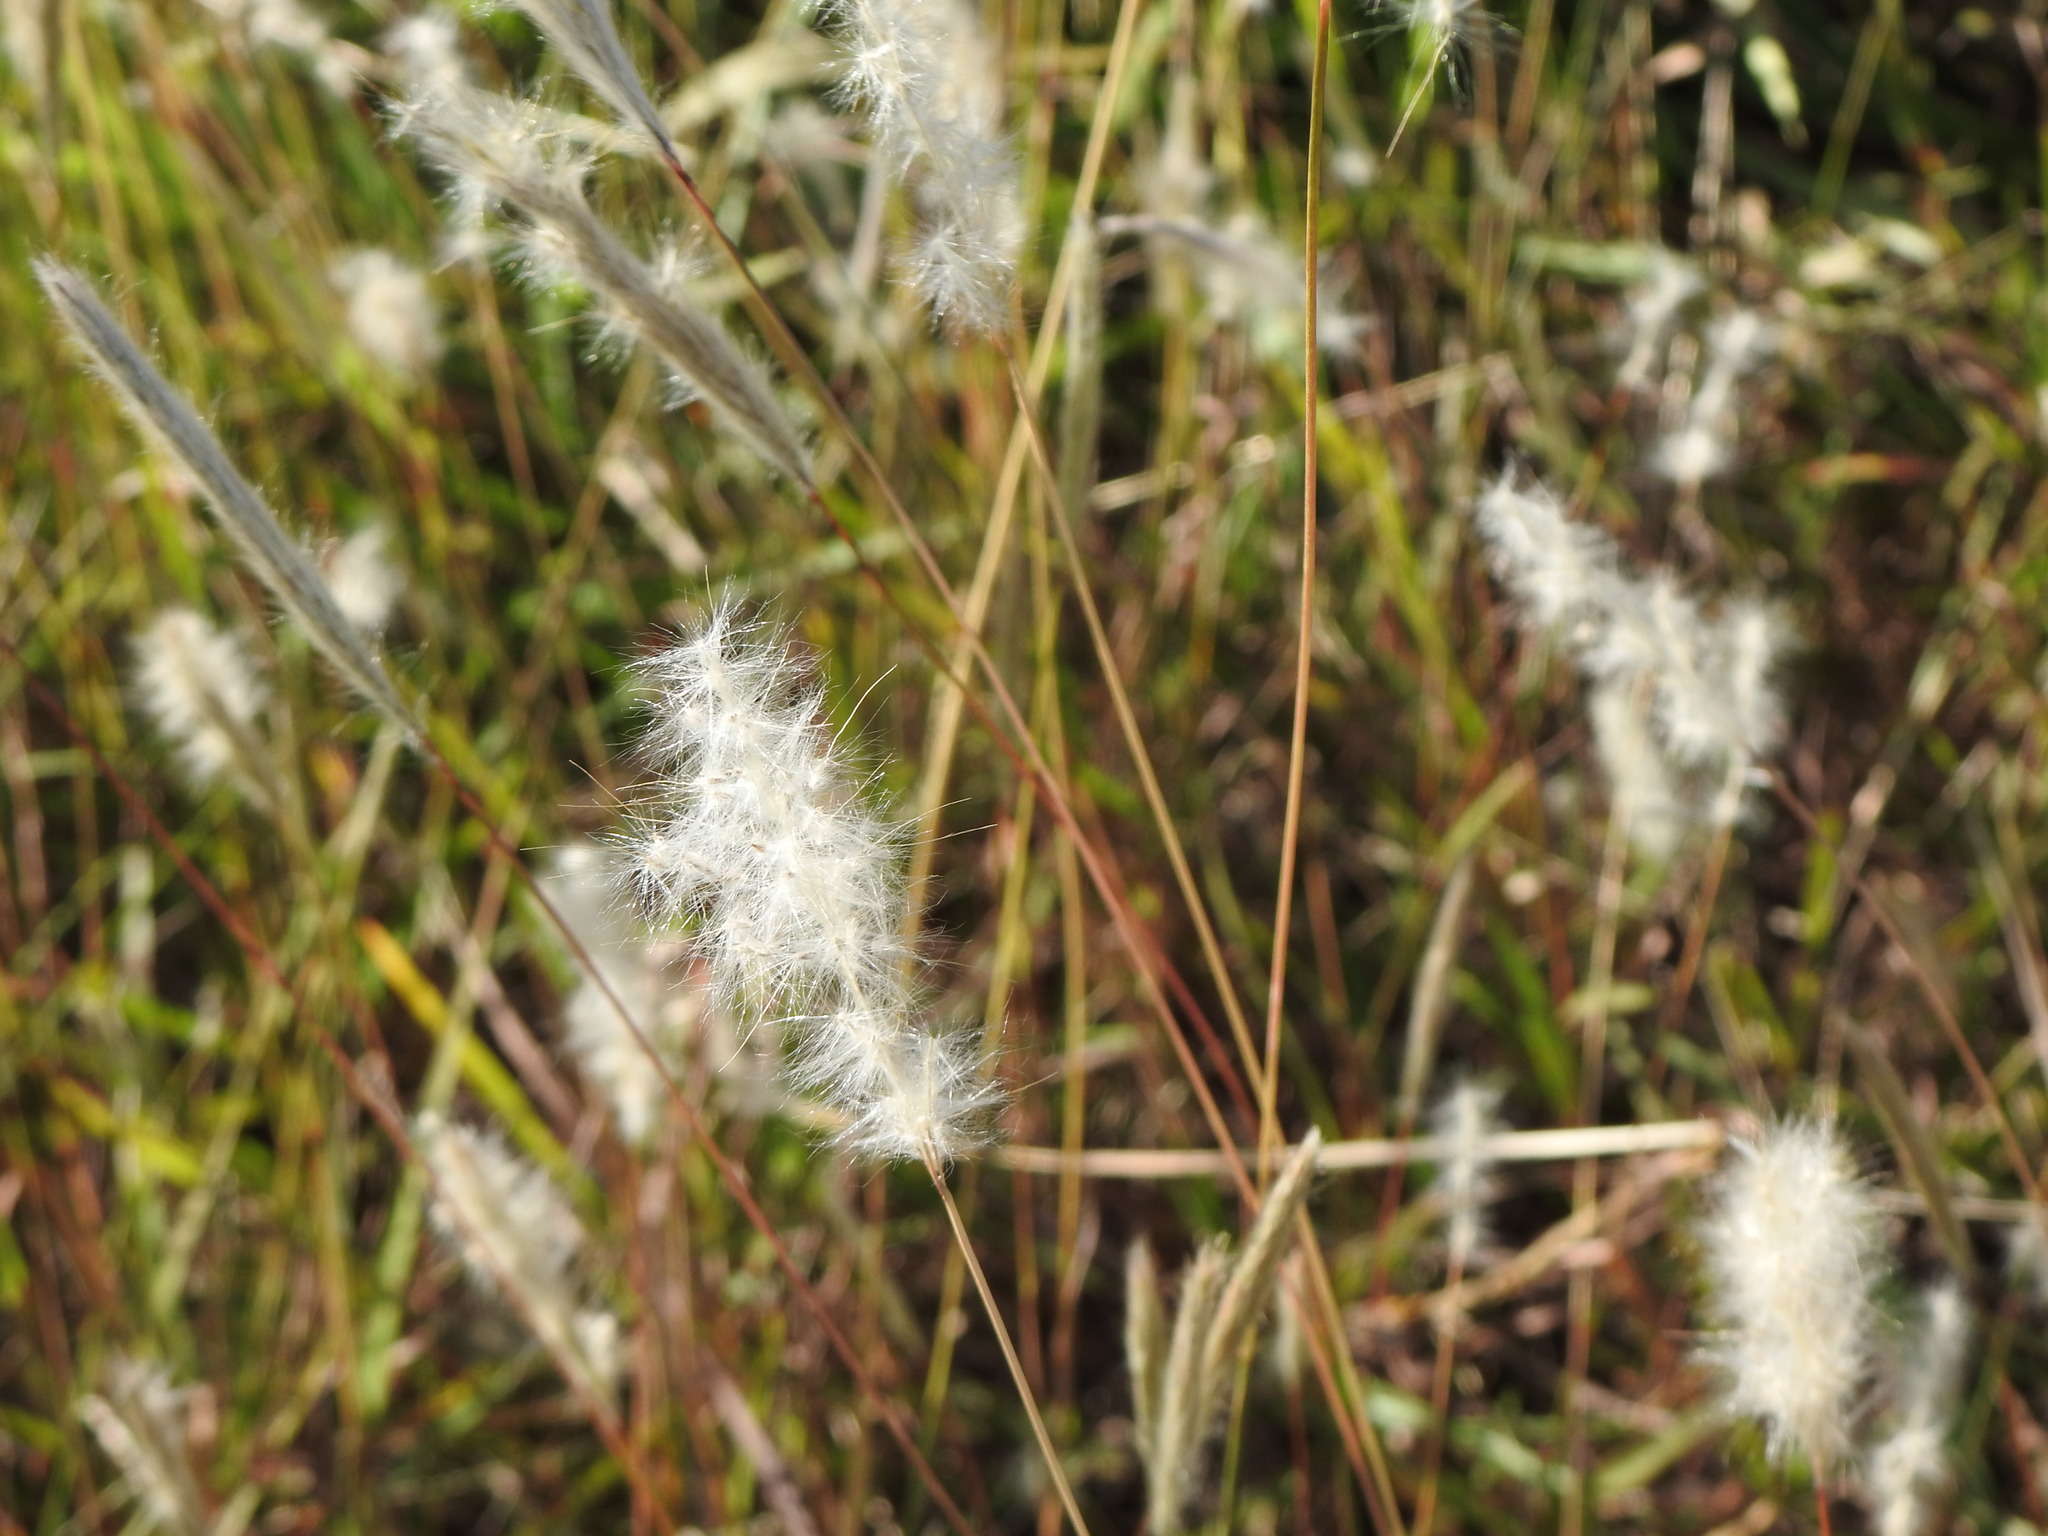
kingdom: Plantae
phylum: Tracheophyta
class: Liliopsida
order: Poales
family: Poaceae
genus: Bothriochloa
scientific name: Bothriochloa laguroides
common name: Silver bluestem
